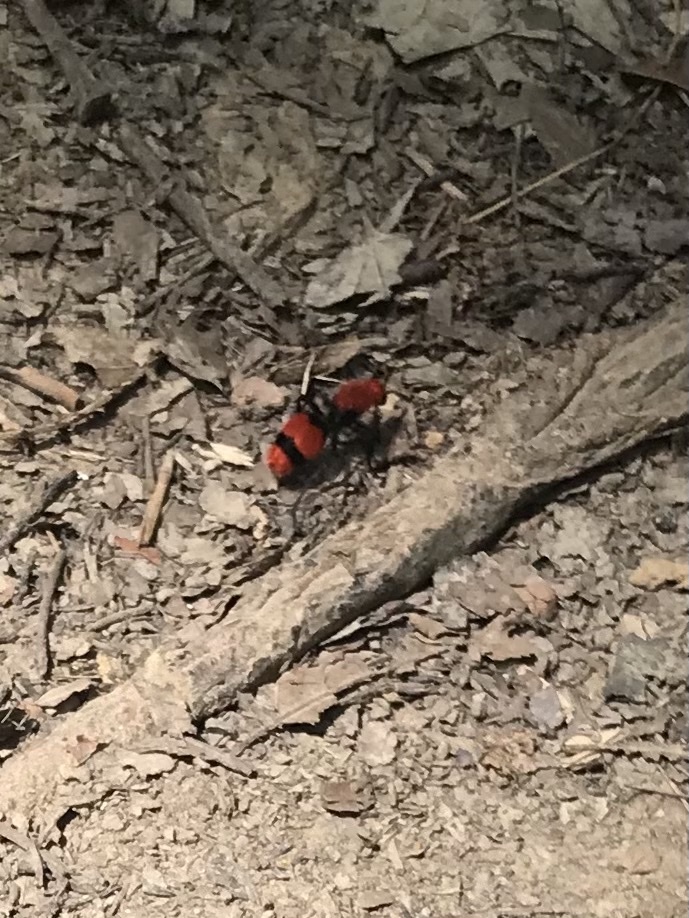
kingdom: Animalia
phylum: Arthropoda
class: Insecta
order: Hymenoptera
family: Mutillidae
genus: Dasymutilla
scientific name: Dasymutilla occidentalis
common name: Common eastern velvet ant
